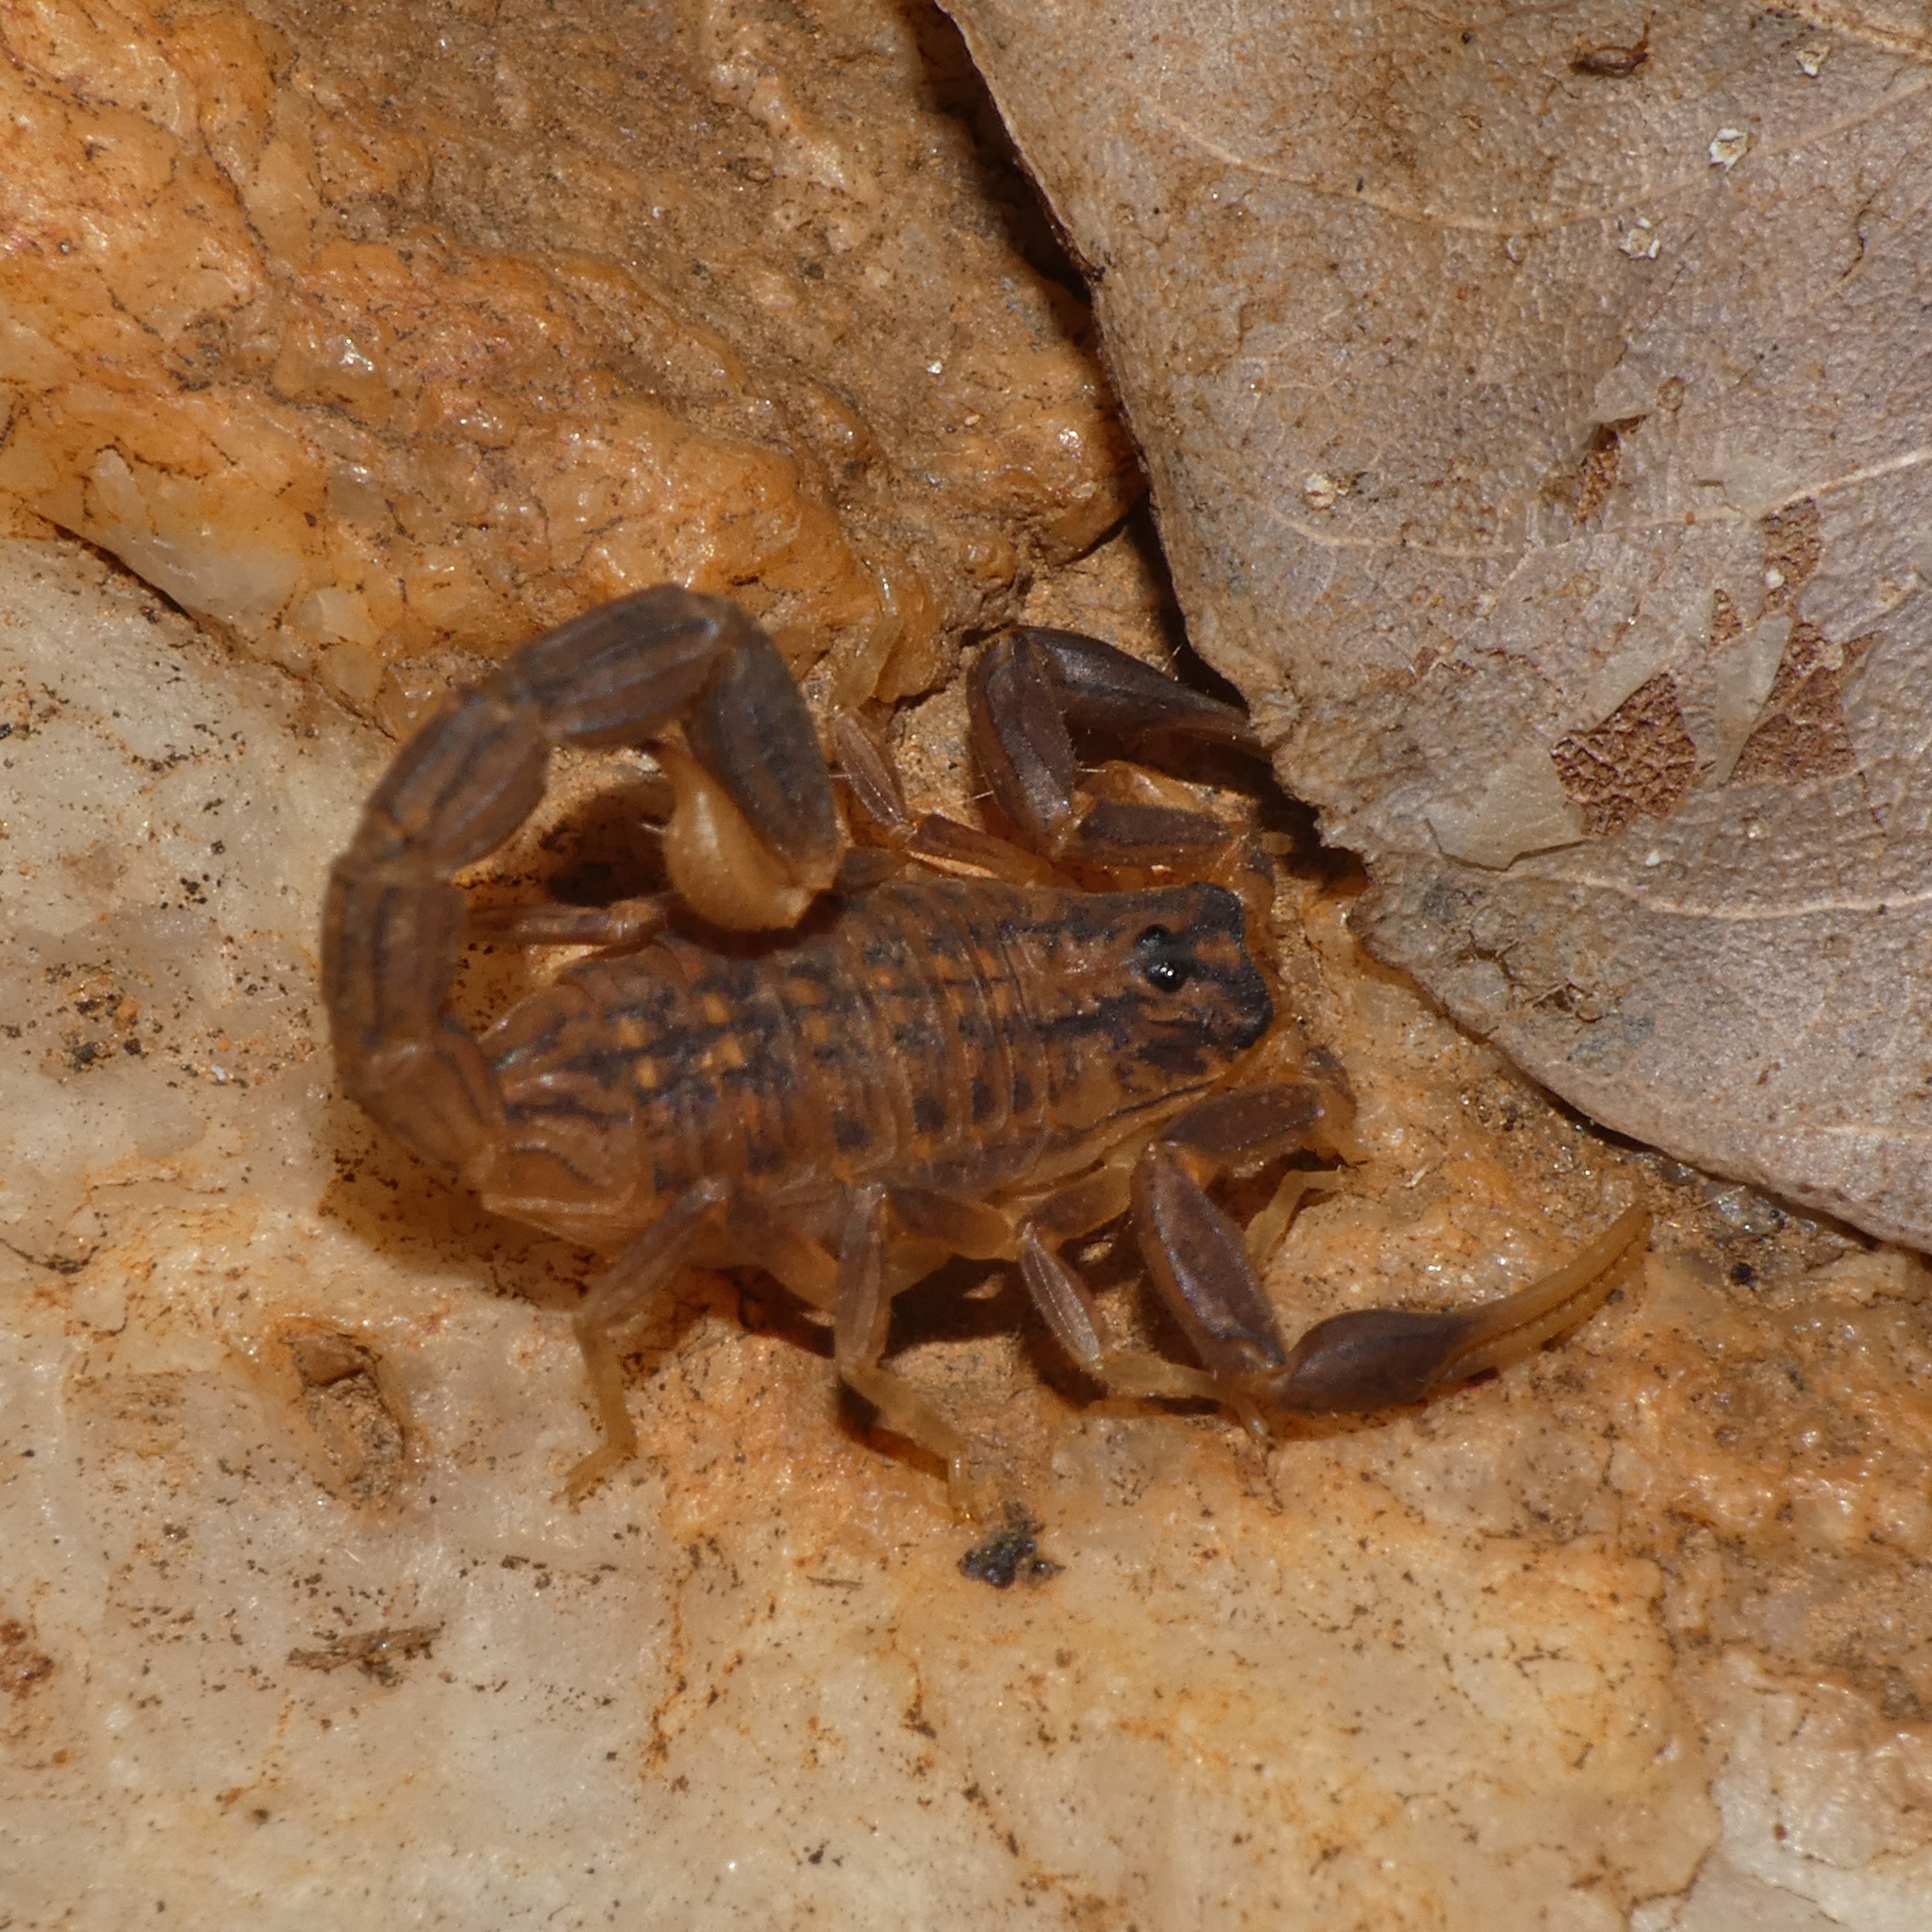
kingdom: Animalia
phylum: Arthropoda
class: Arachnida
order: Scorpiones
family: Buthidae
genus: Hottentotta
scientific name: Hottentotta trilineatus
